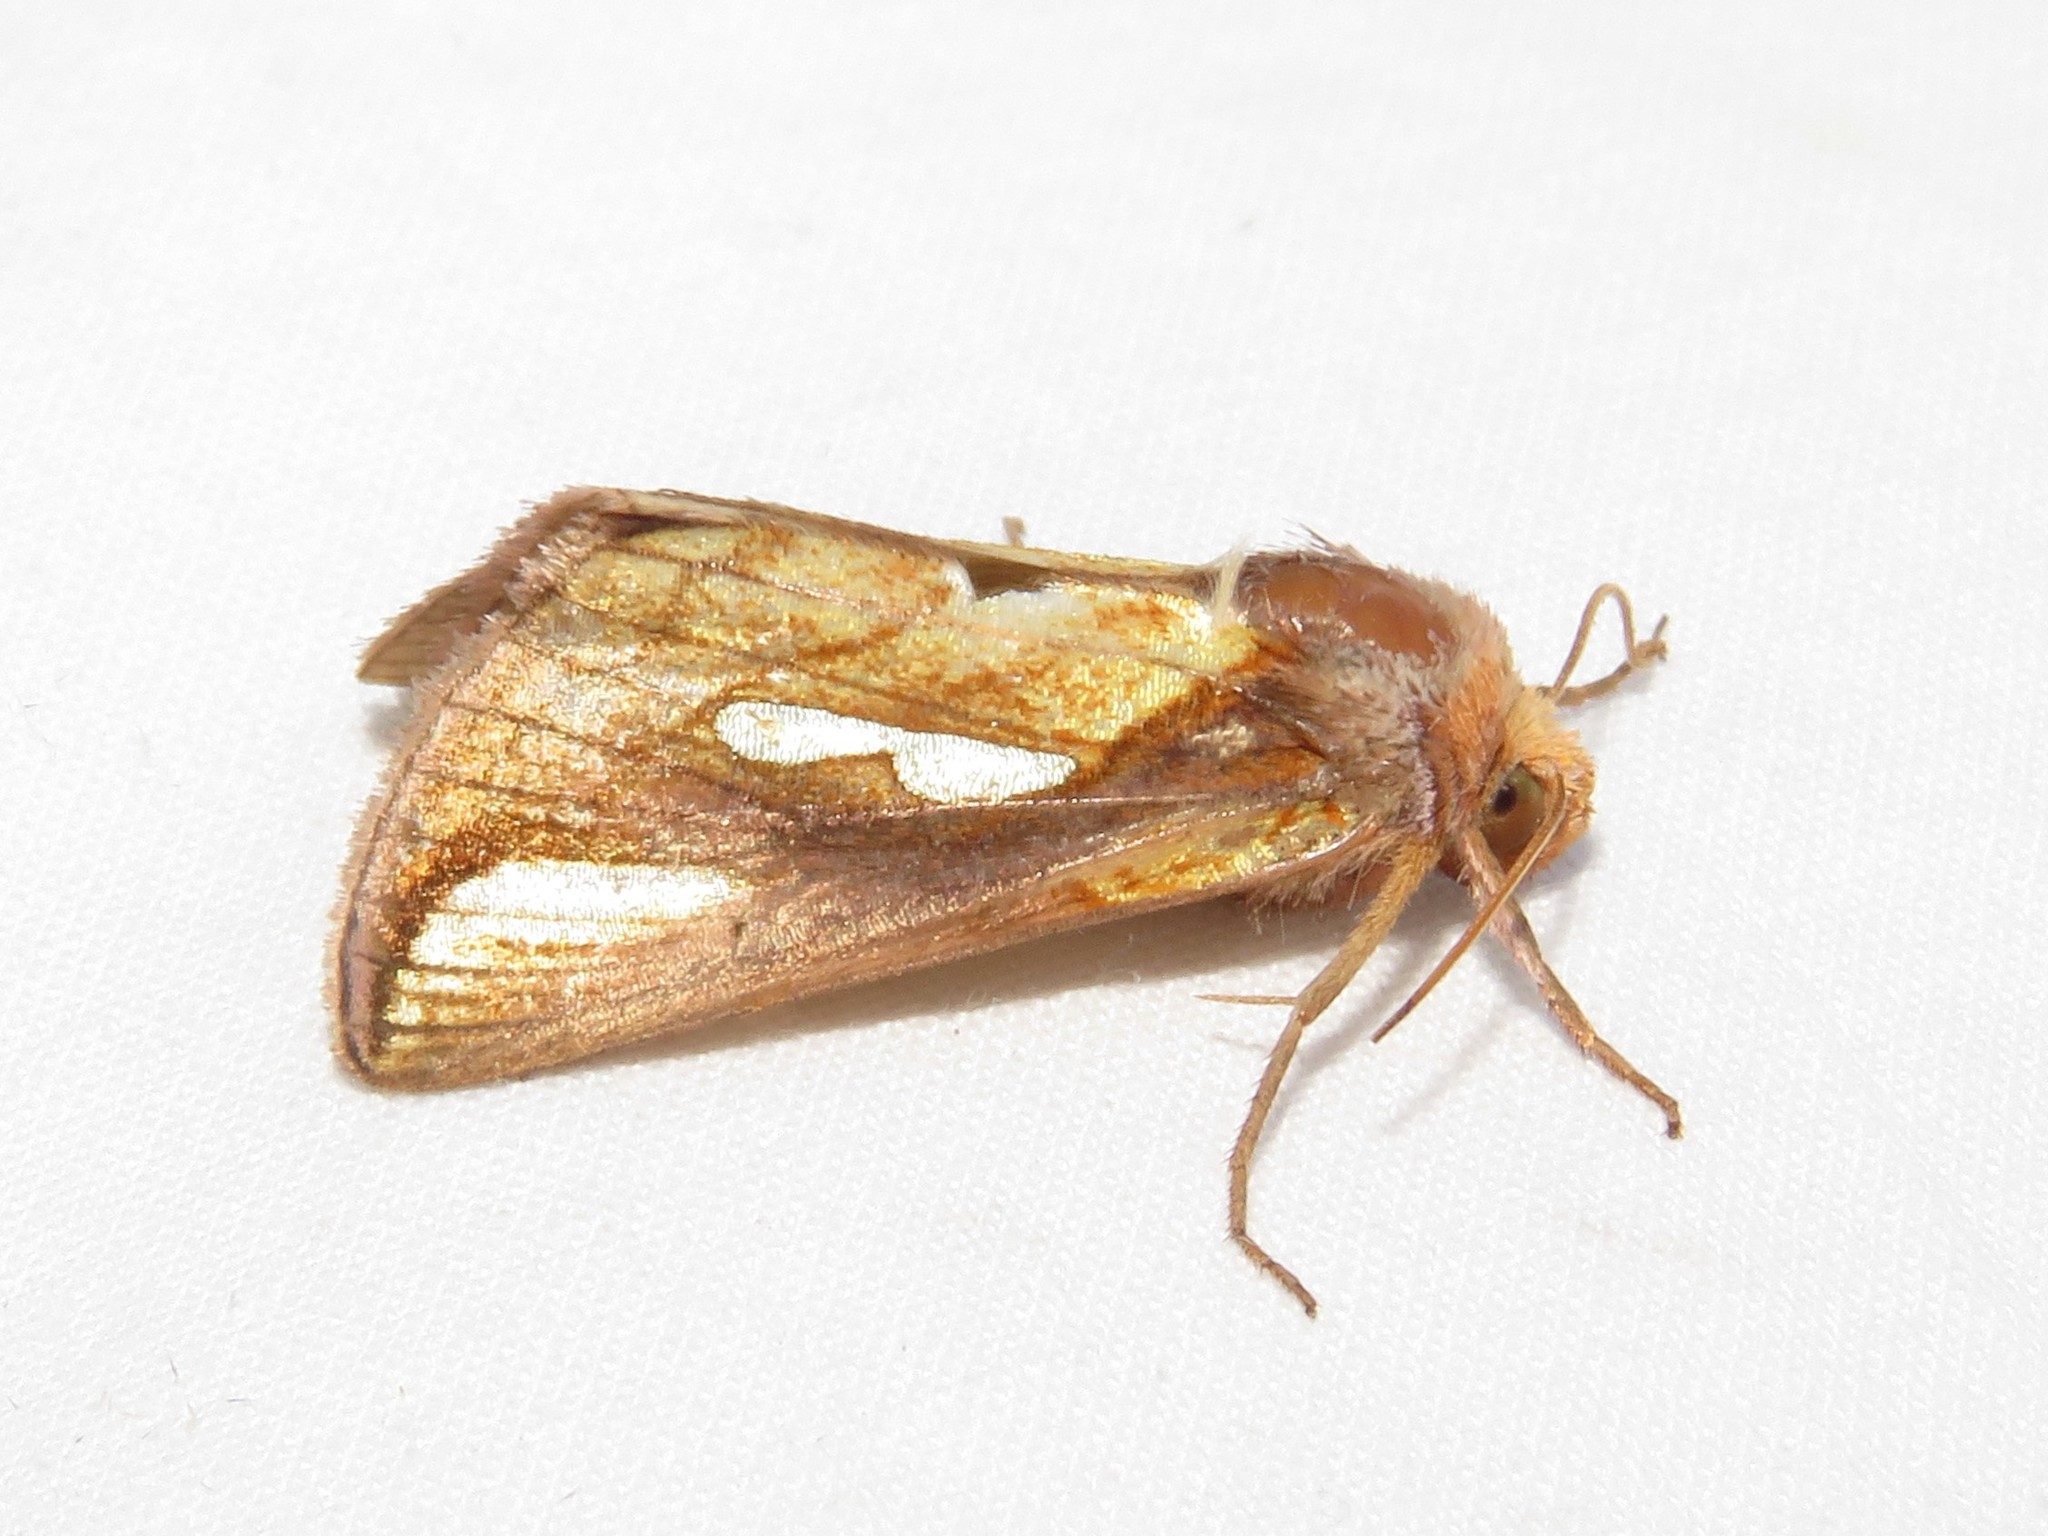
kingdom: Animalia
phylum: Arthropoda
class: Insecta
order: Lepidoptera
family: Noctuidae
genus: Plusia
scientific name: Plusia contexta
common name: Connected looper moth
